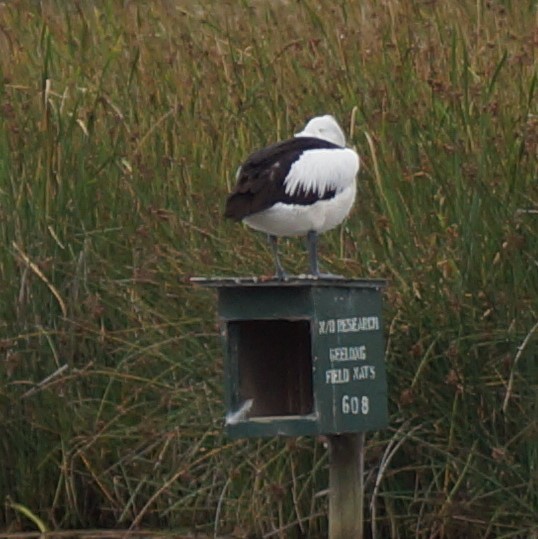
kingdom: Animalia
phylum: Chordata
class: Aves
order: Pelecaniformes
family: Pelecanidae
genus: Pelecanus
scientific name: Pelecanus conspicillatus
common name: Australian pelican
